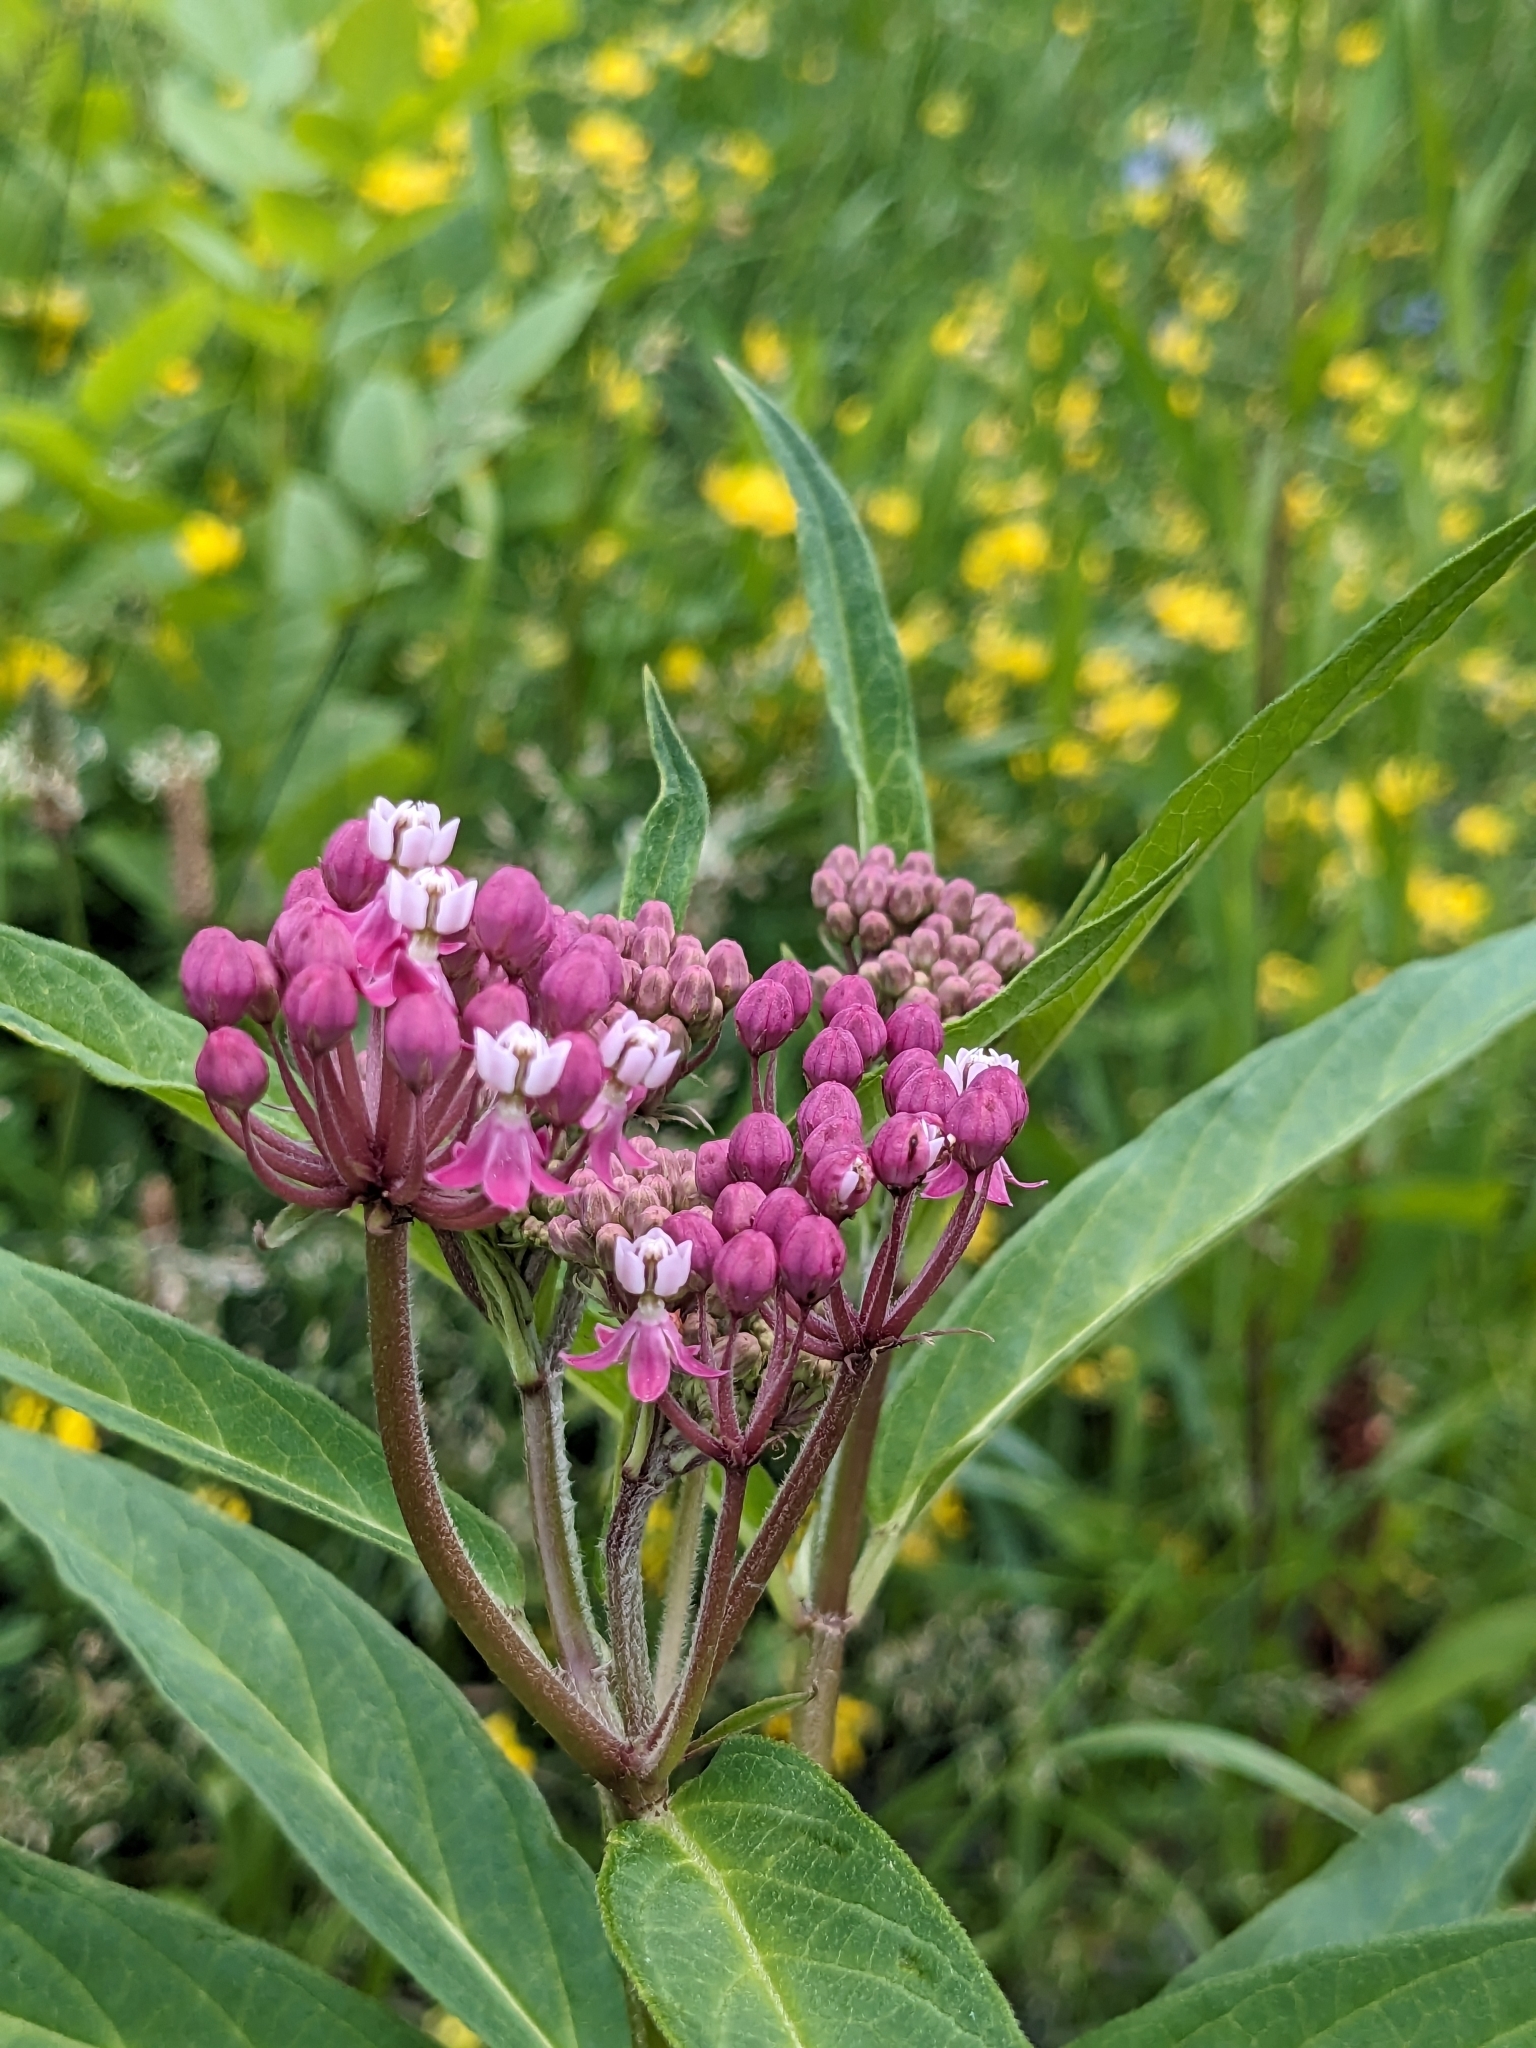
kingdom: Plantae
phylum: Tracheophyta
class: Magnoliopsida
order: Gentianales
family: Apocynaceae
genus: Asclepias
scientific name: Asclepias incarnata
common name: Swamp milkweed
